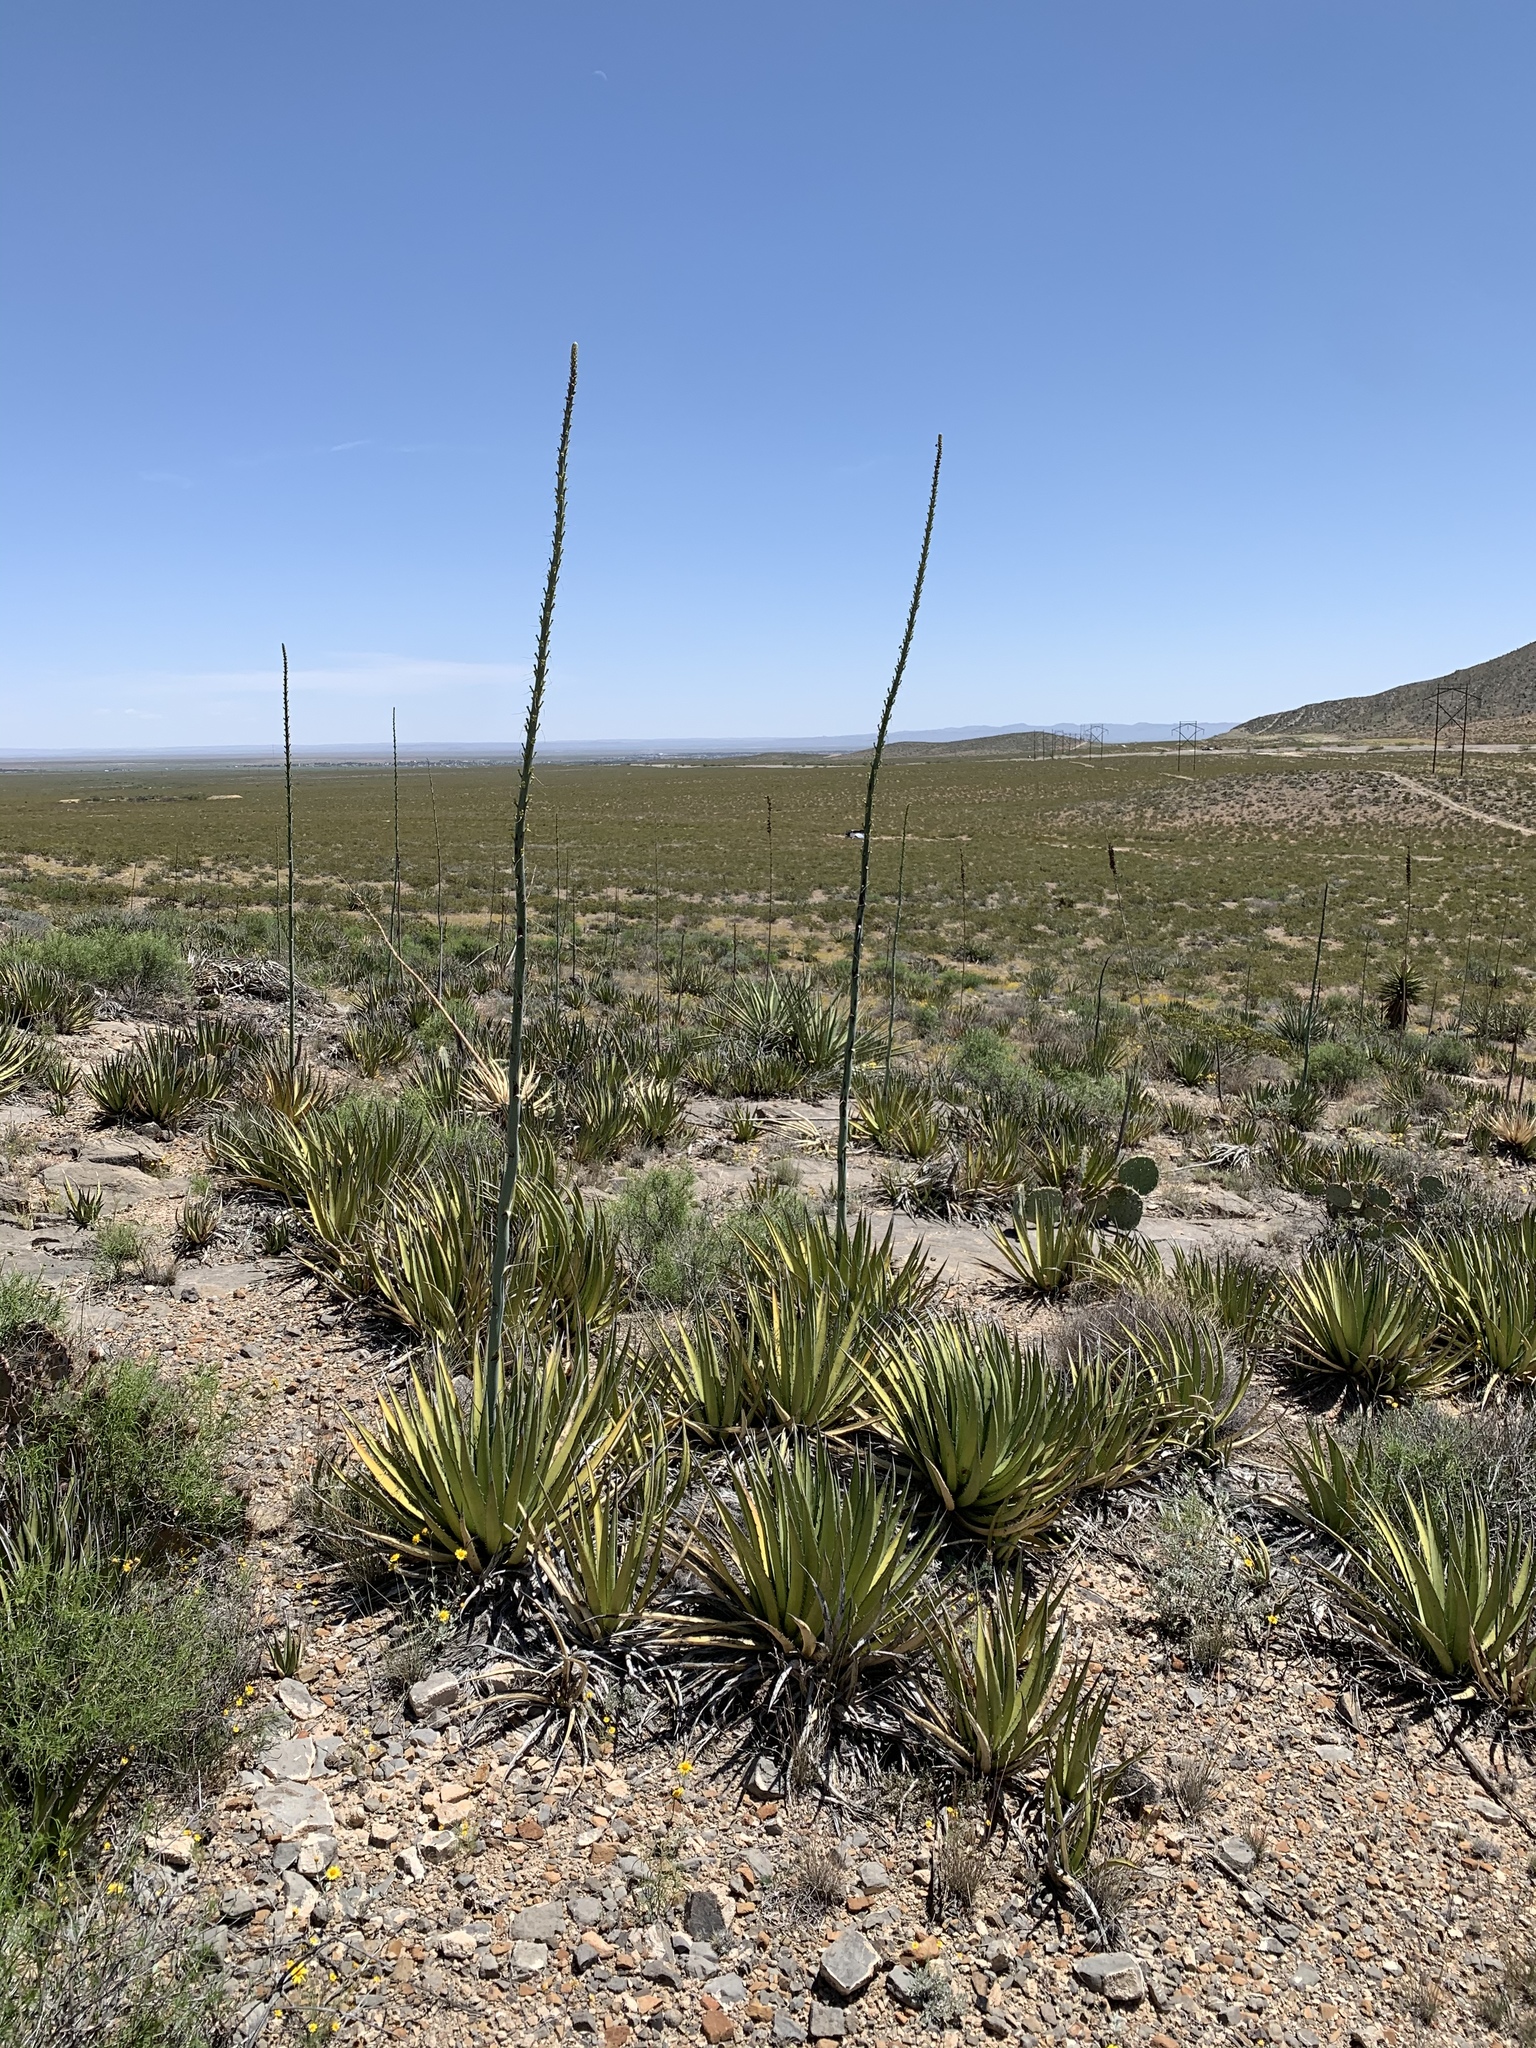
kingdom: Plantae
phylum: Tracheophyta
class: Liliopsida
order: Asparagales
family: Asparagaceae
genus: Agave
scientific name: Agave lechuguilla
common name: Lecheguilla agave
